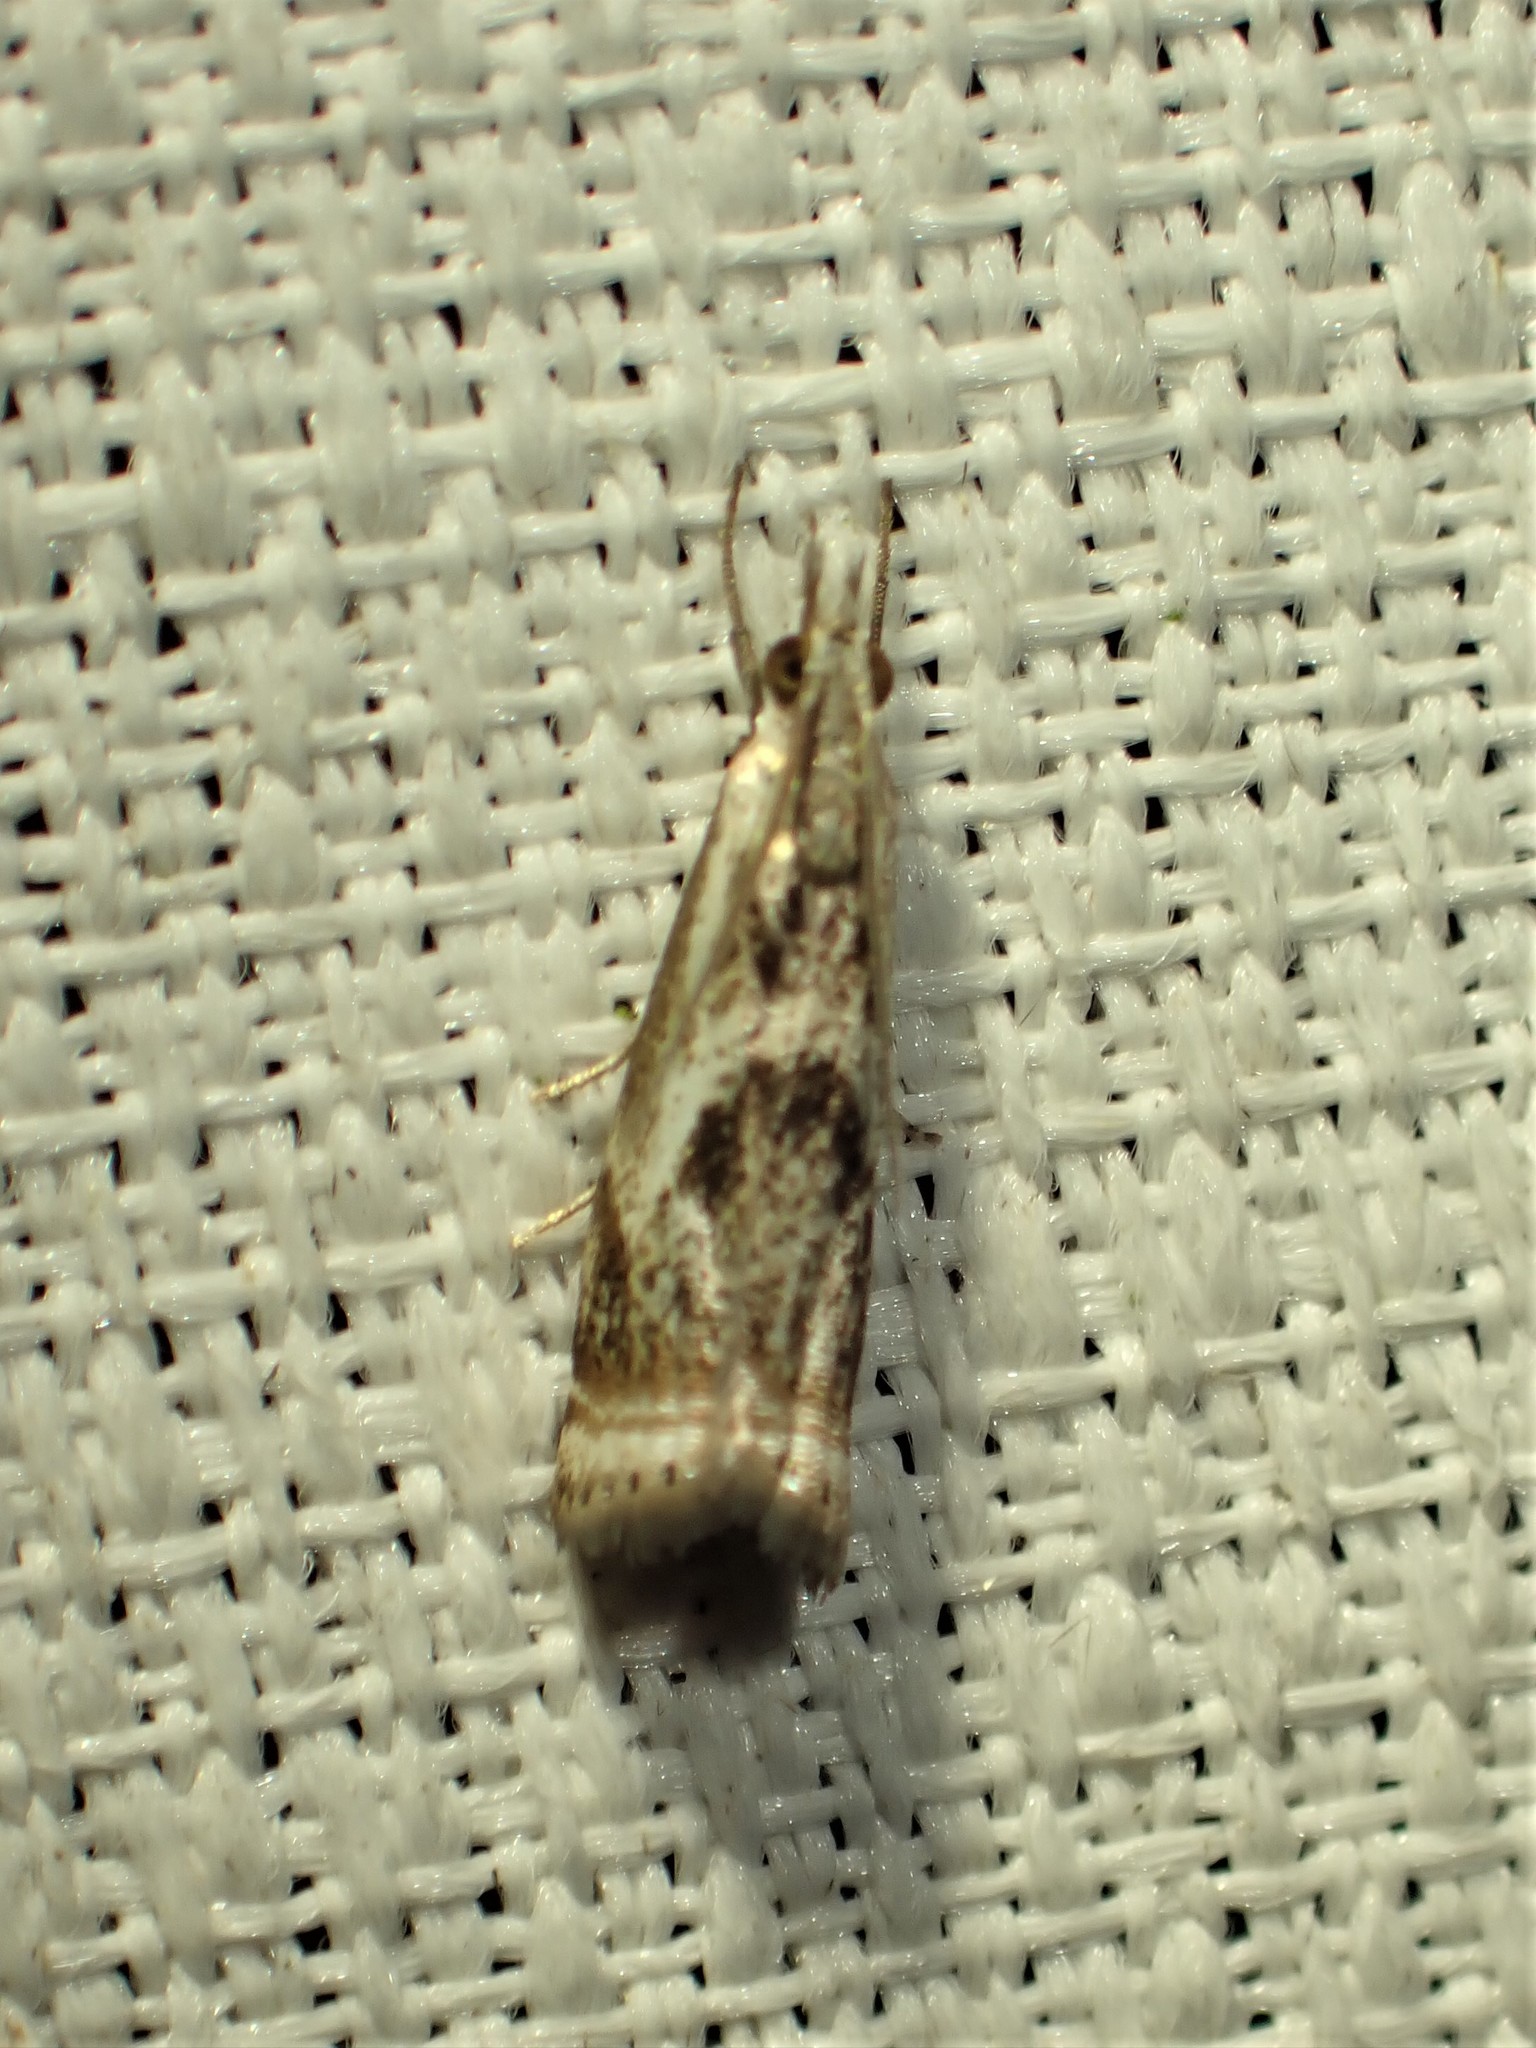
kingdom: Animalia
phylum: Arthropoda
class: Insecta
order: Lepidoptera
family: Crambidae
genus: Microcrambus
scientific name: Microcrambus elegans
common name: Elegant grass-veneer
